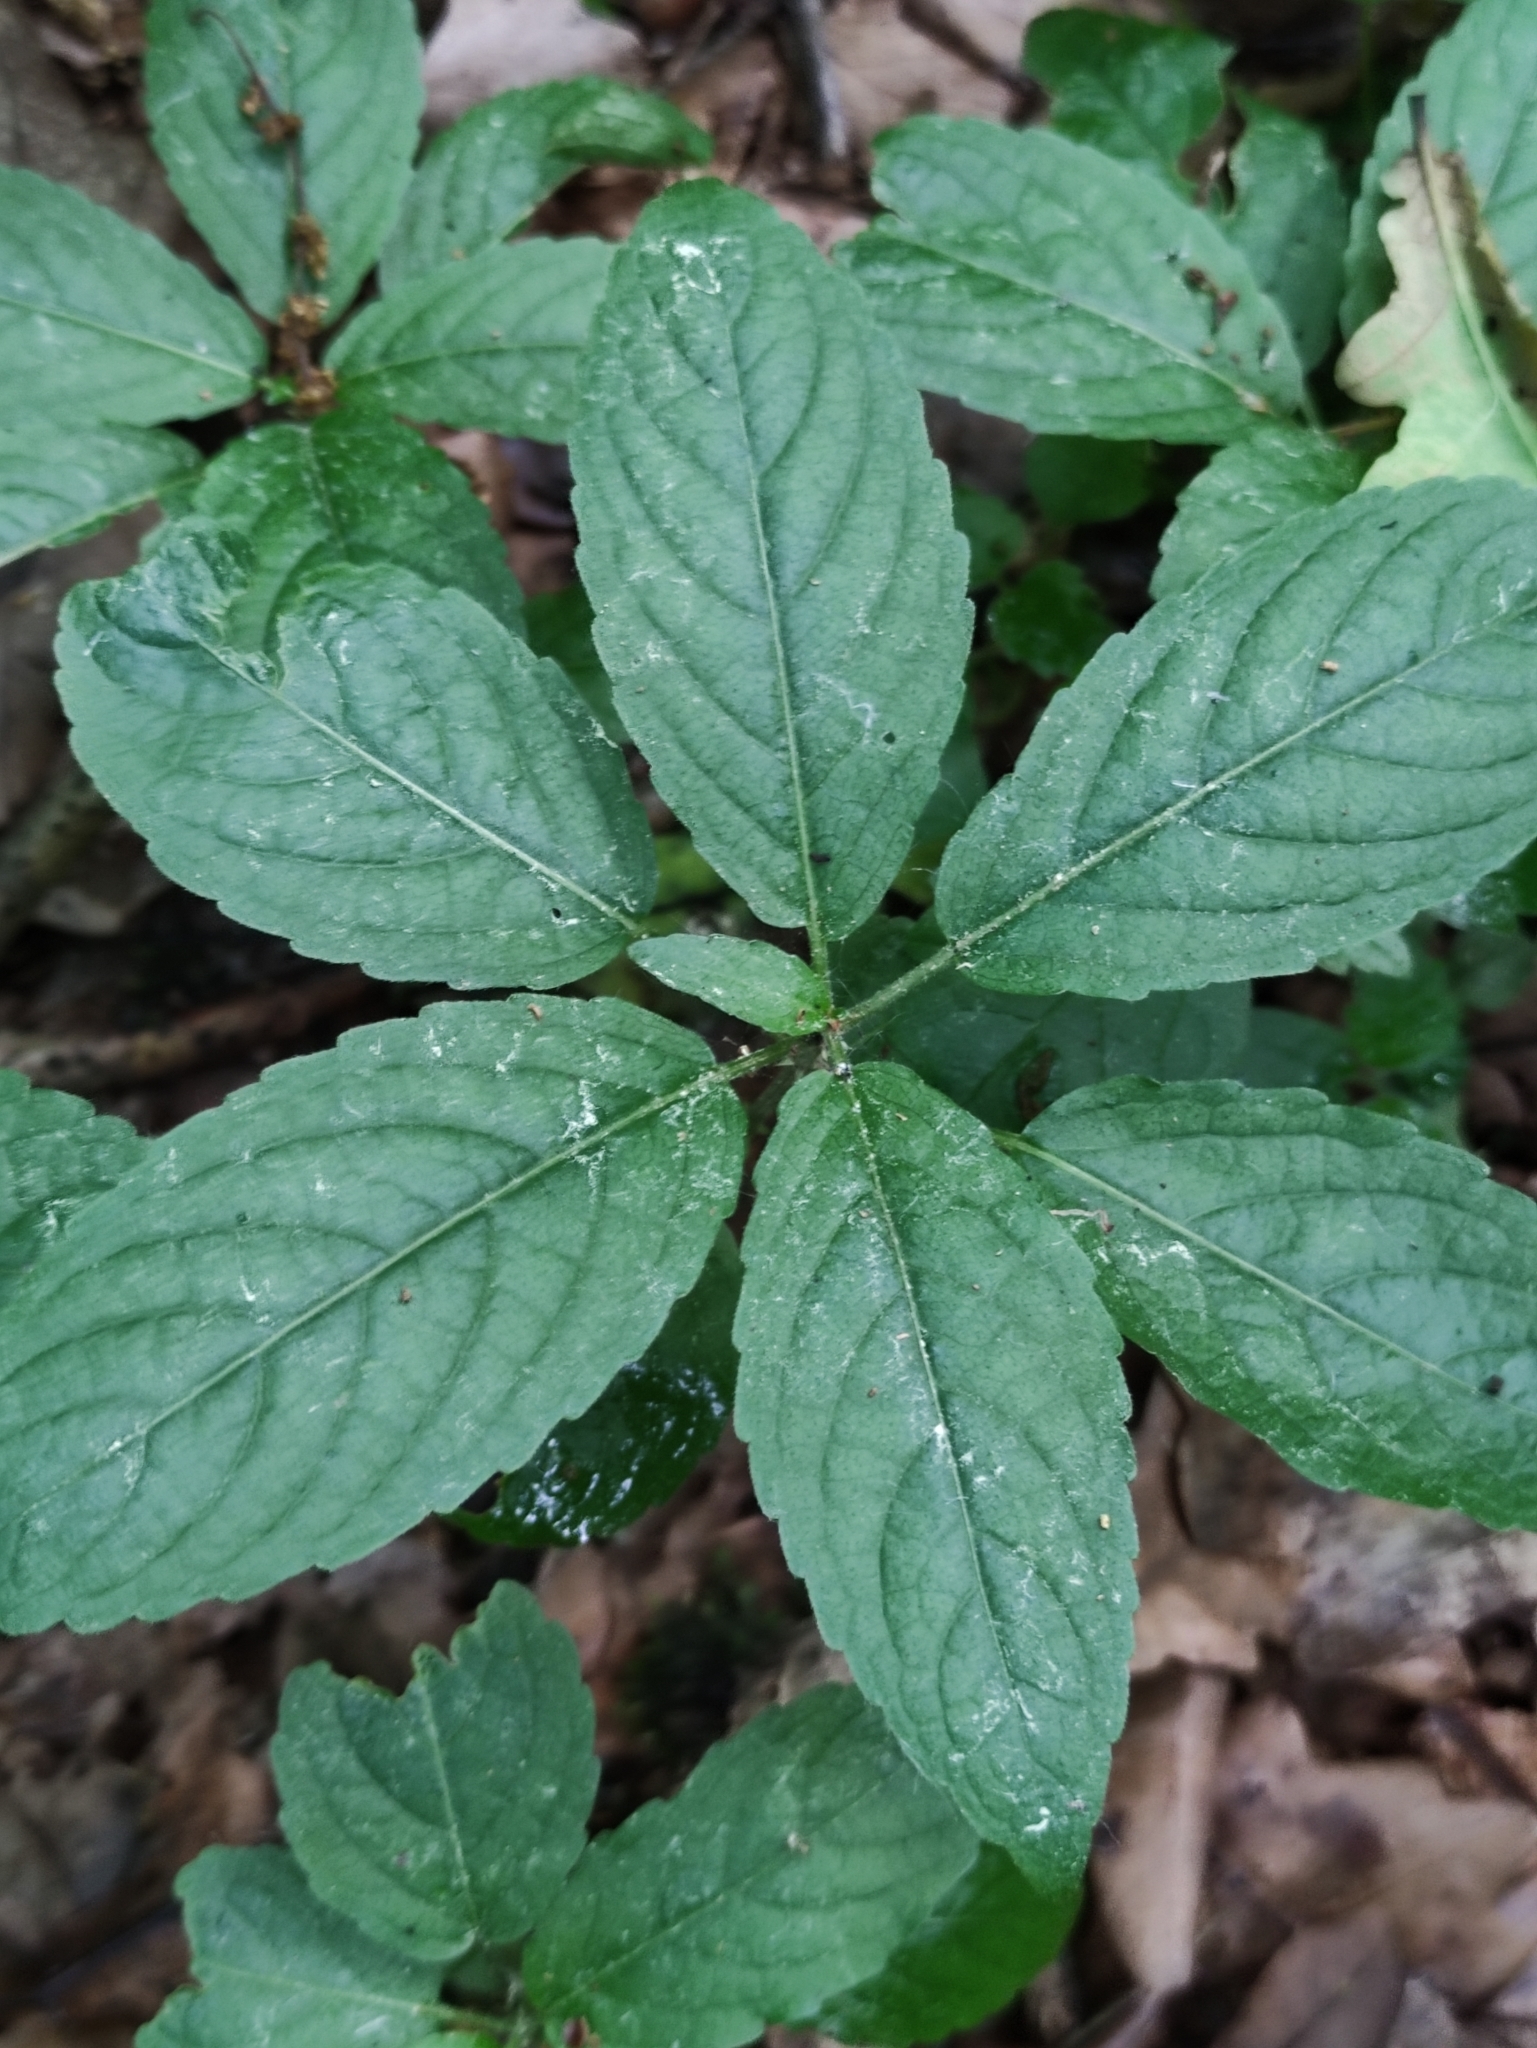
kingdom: Plantae
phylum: Tracheophyta
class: Magnoliopsida
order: Malpighiales
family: Euphorbiaceae
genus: Mercurialis
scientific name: Mercurialis perennis
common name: Dog mercury
